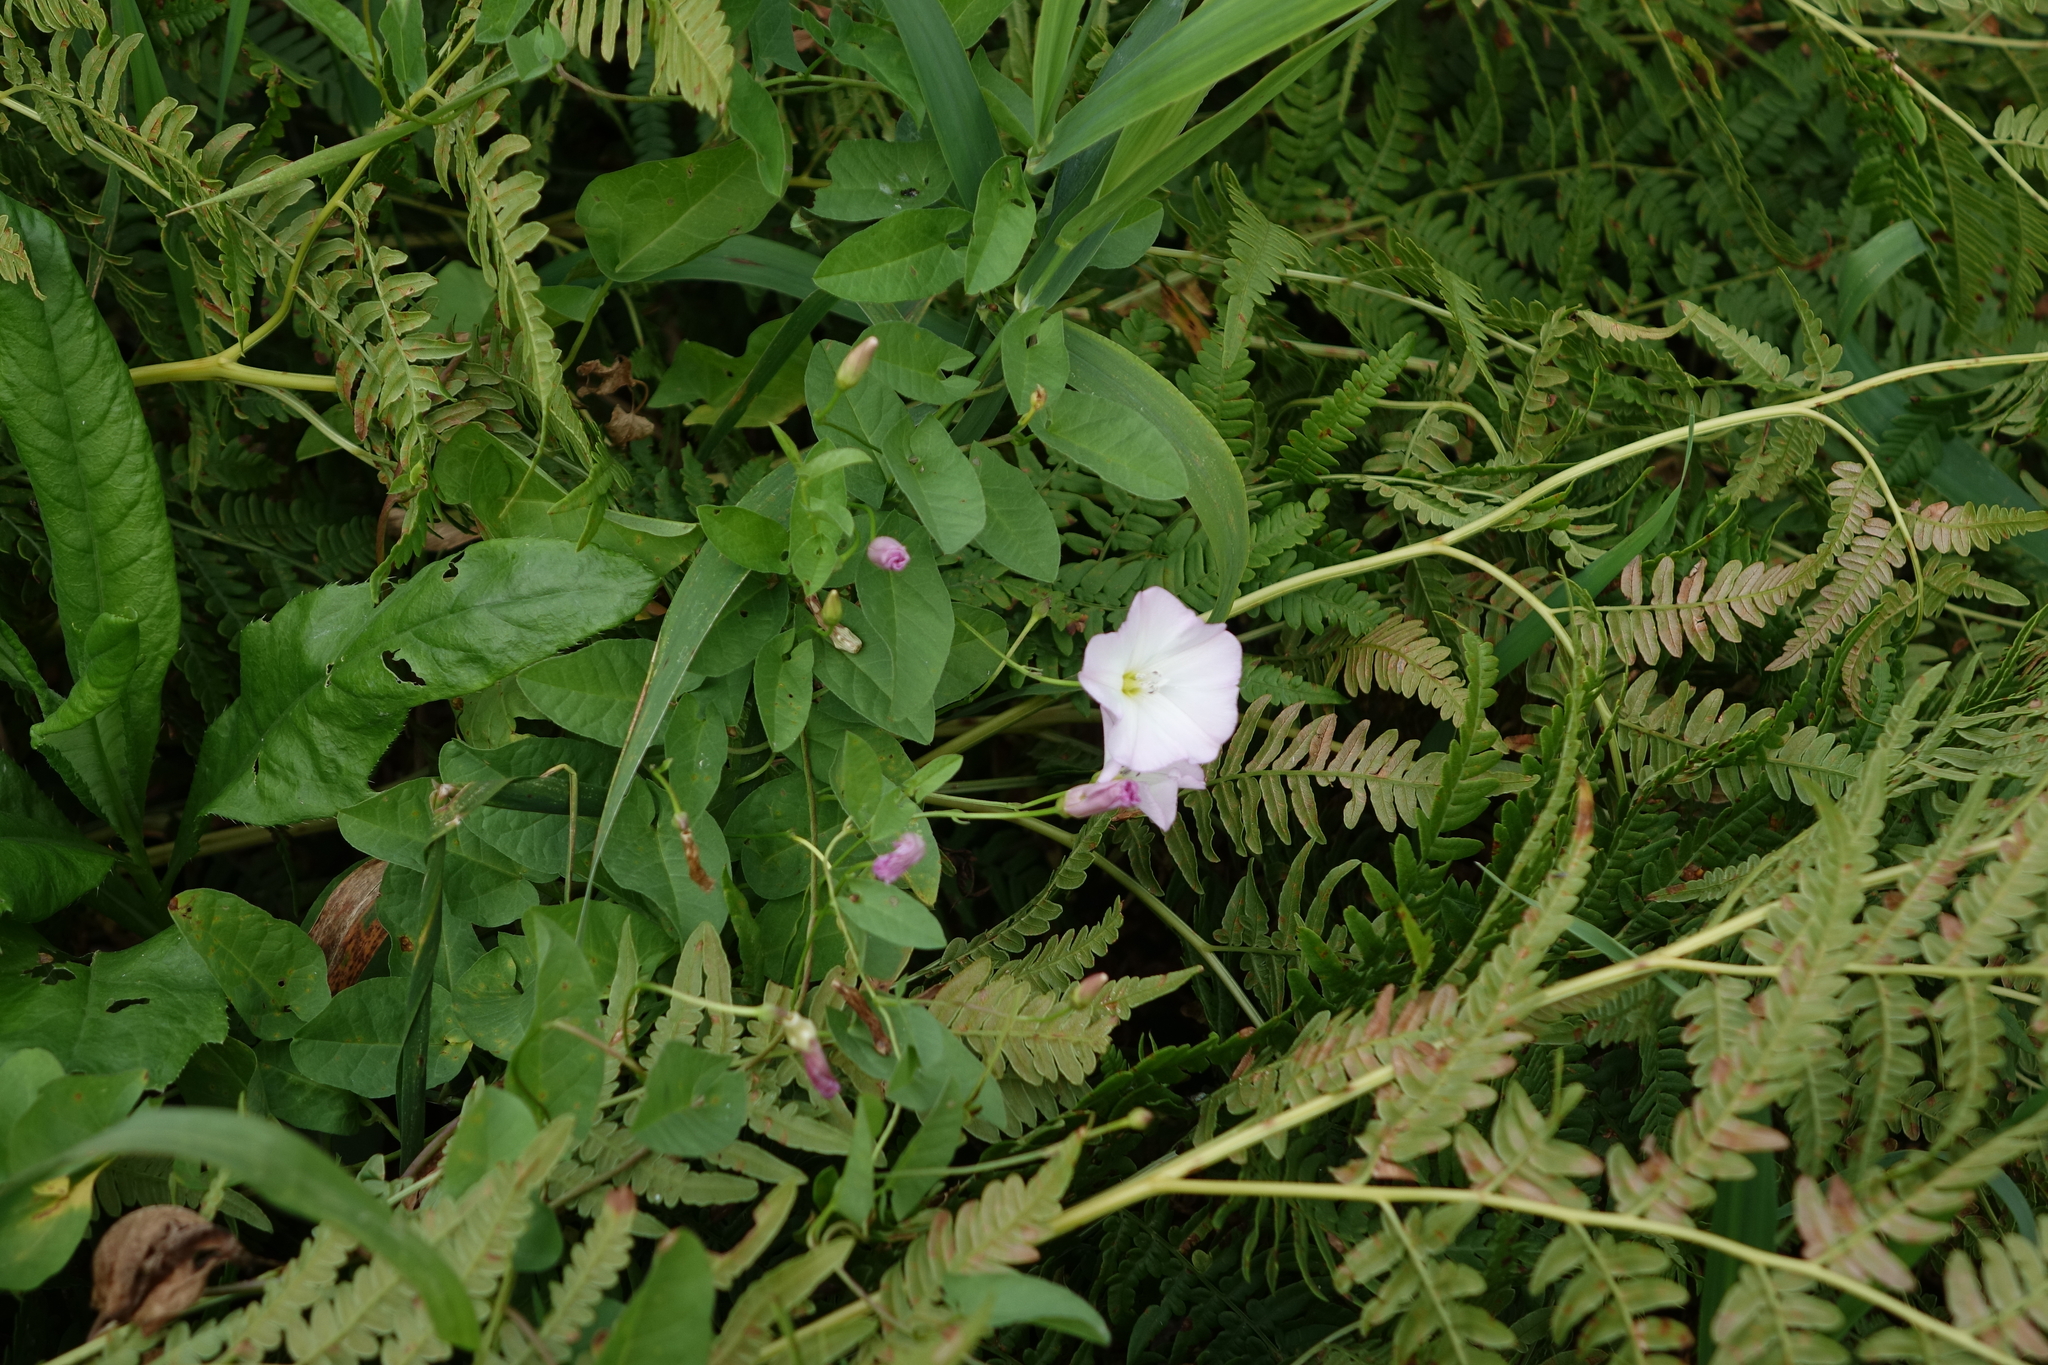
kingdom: Plantae
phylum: Tracheophyta
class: Magnoliopsida
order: Solanales
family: Convolvulaceae
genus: Convolvulus
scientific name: Convolvulus arvensis
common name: Field bindweed
